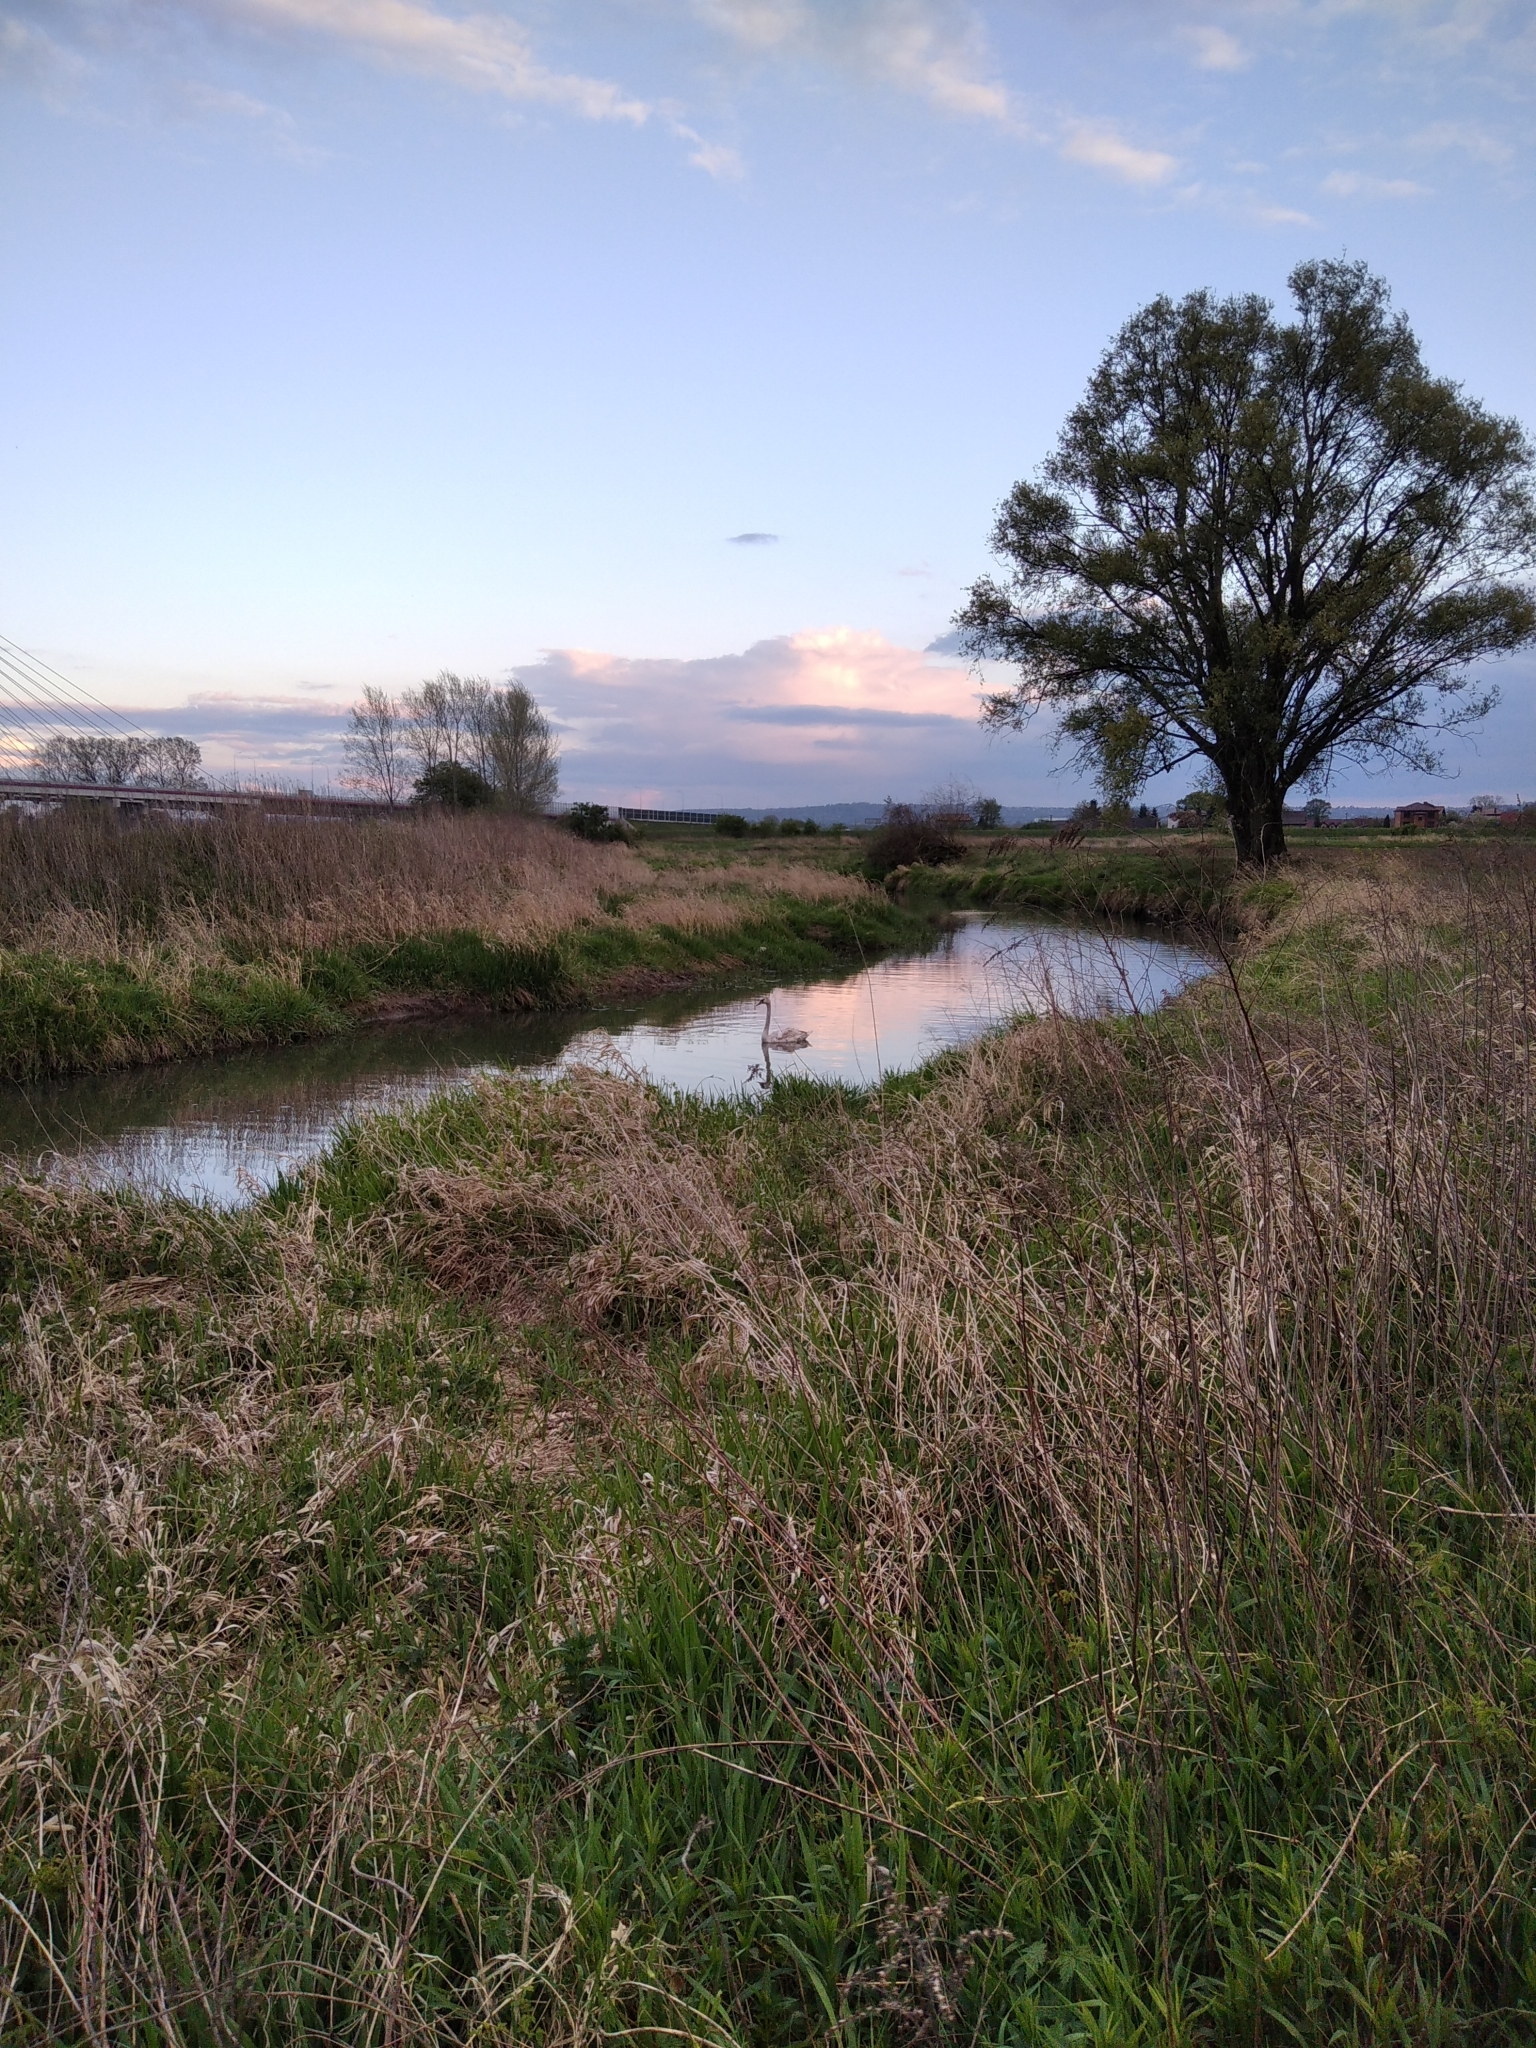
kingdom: Animalia
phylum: Chordata
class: Aves
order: Anseriformes
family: Anatidae
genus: Cygnus
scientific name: Cygnus olor
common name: Mute swan
